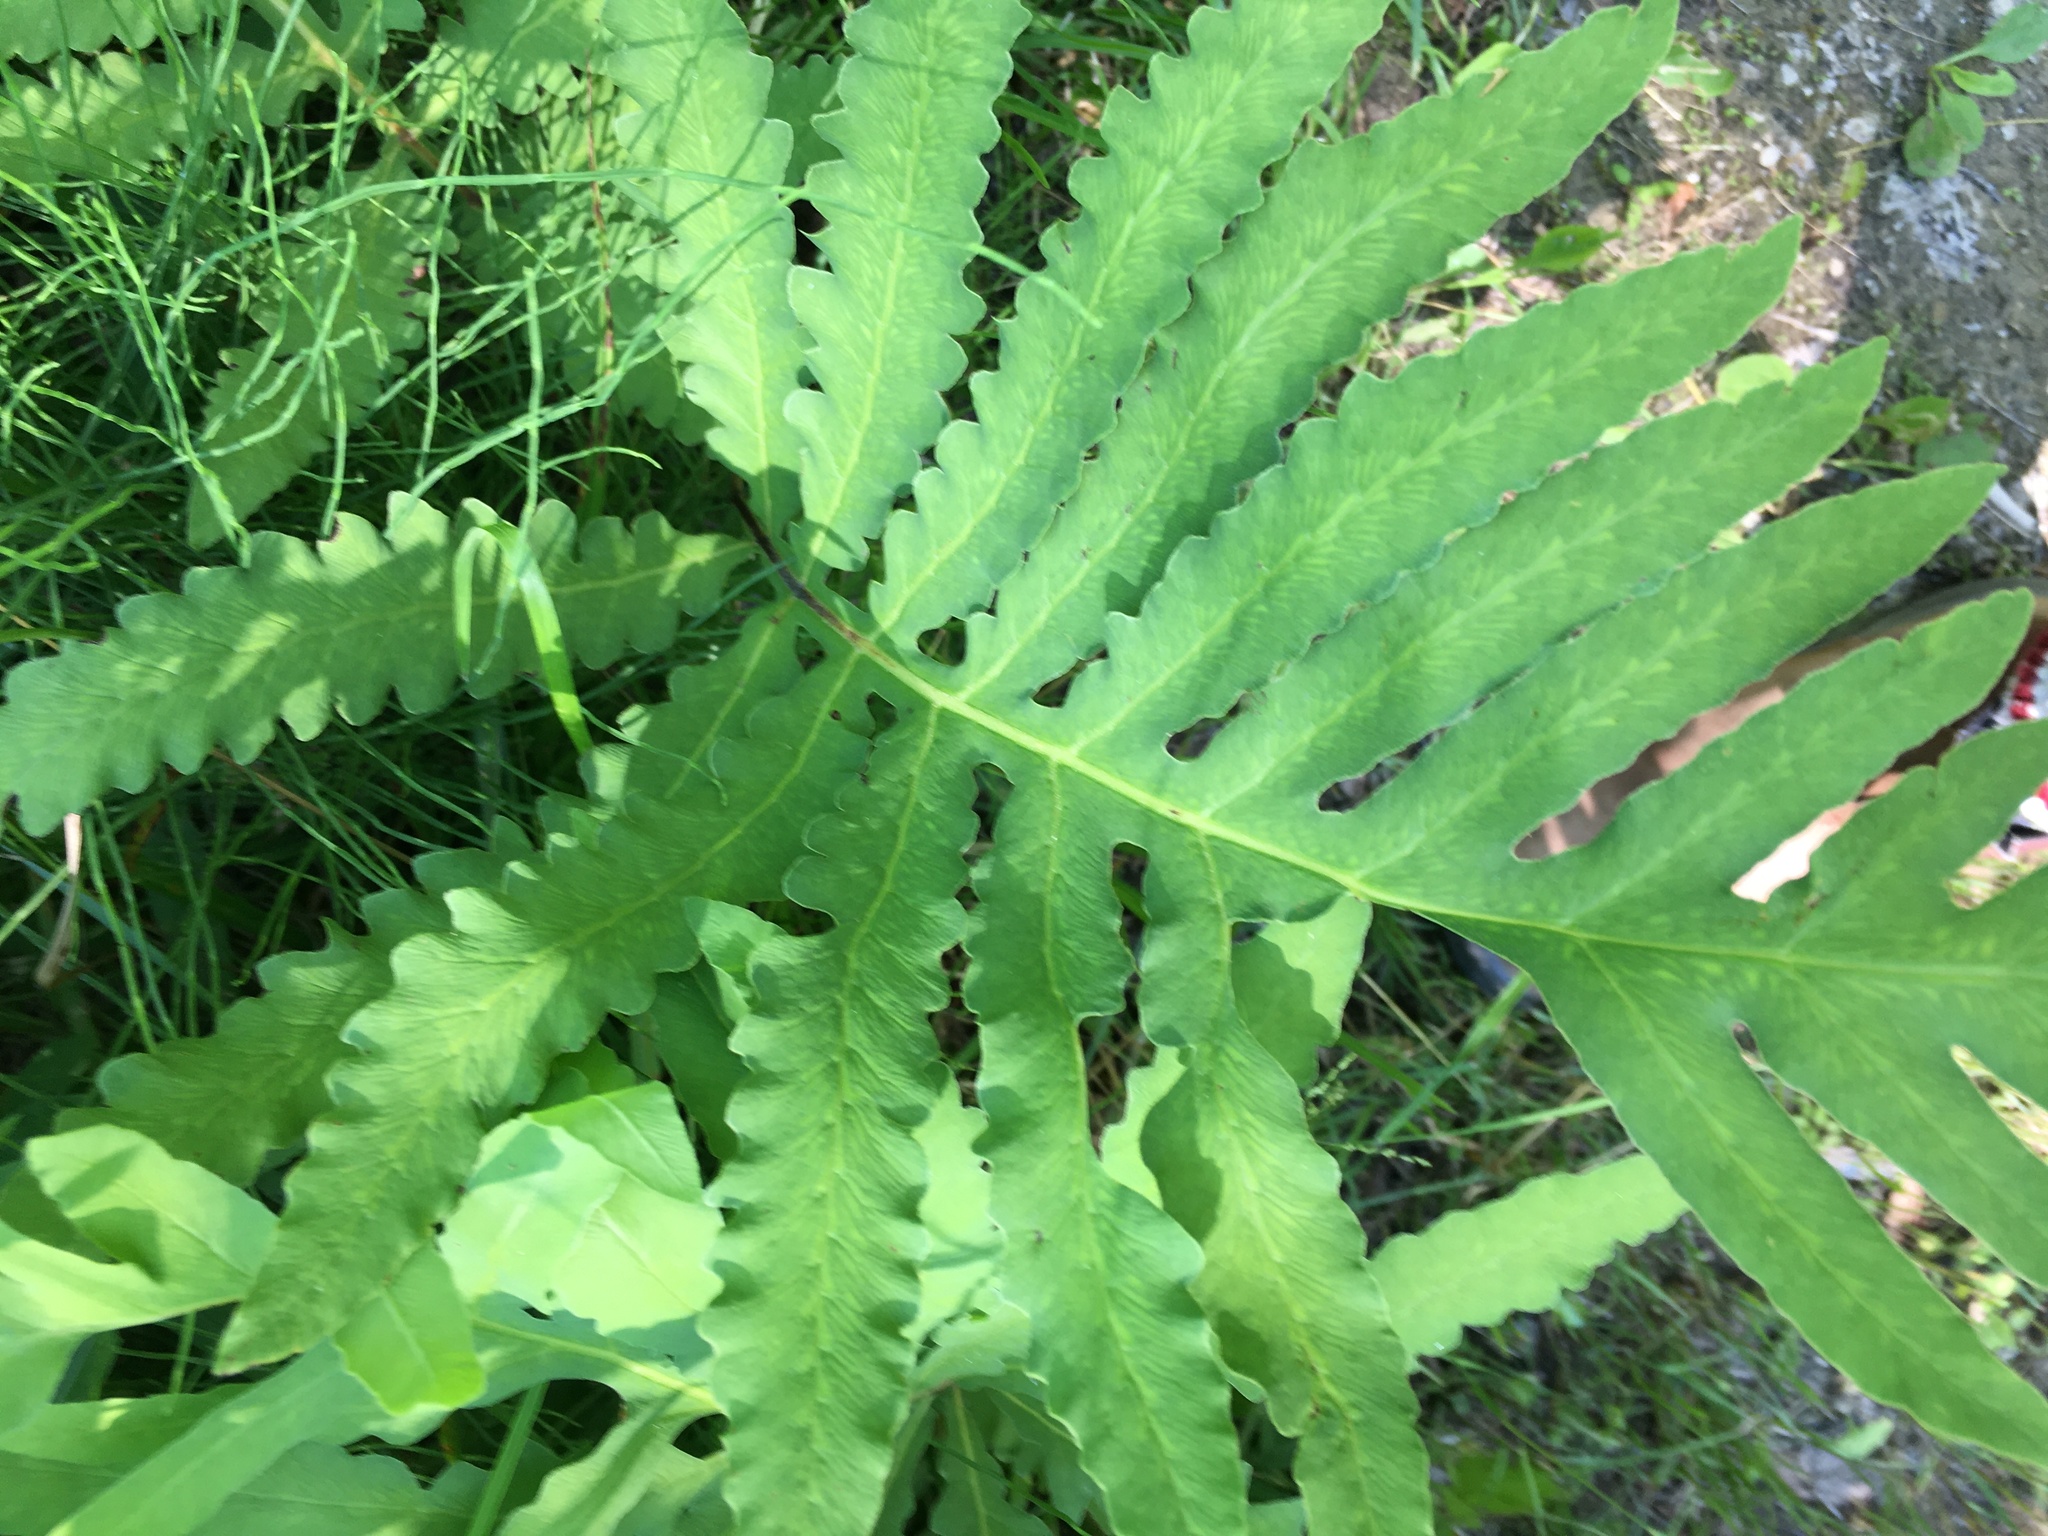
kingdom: Plantae
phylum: Tracheophyta
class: Polypodiopsida
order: Polypodiales
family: Onocleaceae
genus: Onoclea
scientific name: Onoclea sensibilis
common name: Sensitive fern
